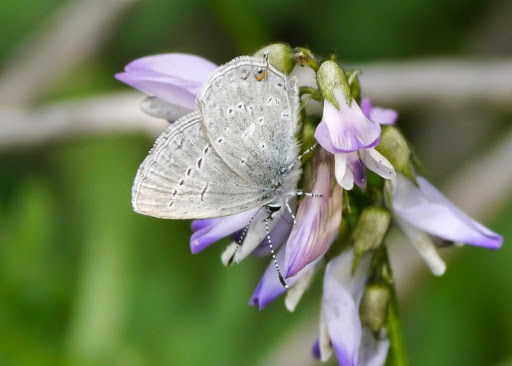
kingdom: Animalia
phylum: Arthropoda
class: Insecta
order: Lepidoptera
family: Lycaenidae
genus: Elkalyce
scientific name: Elkalyce amyntula
